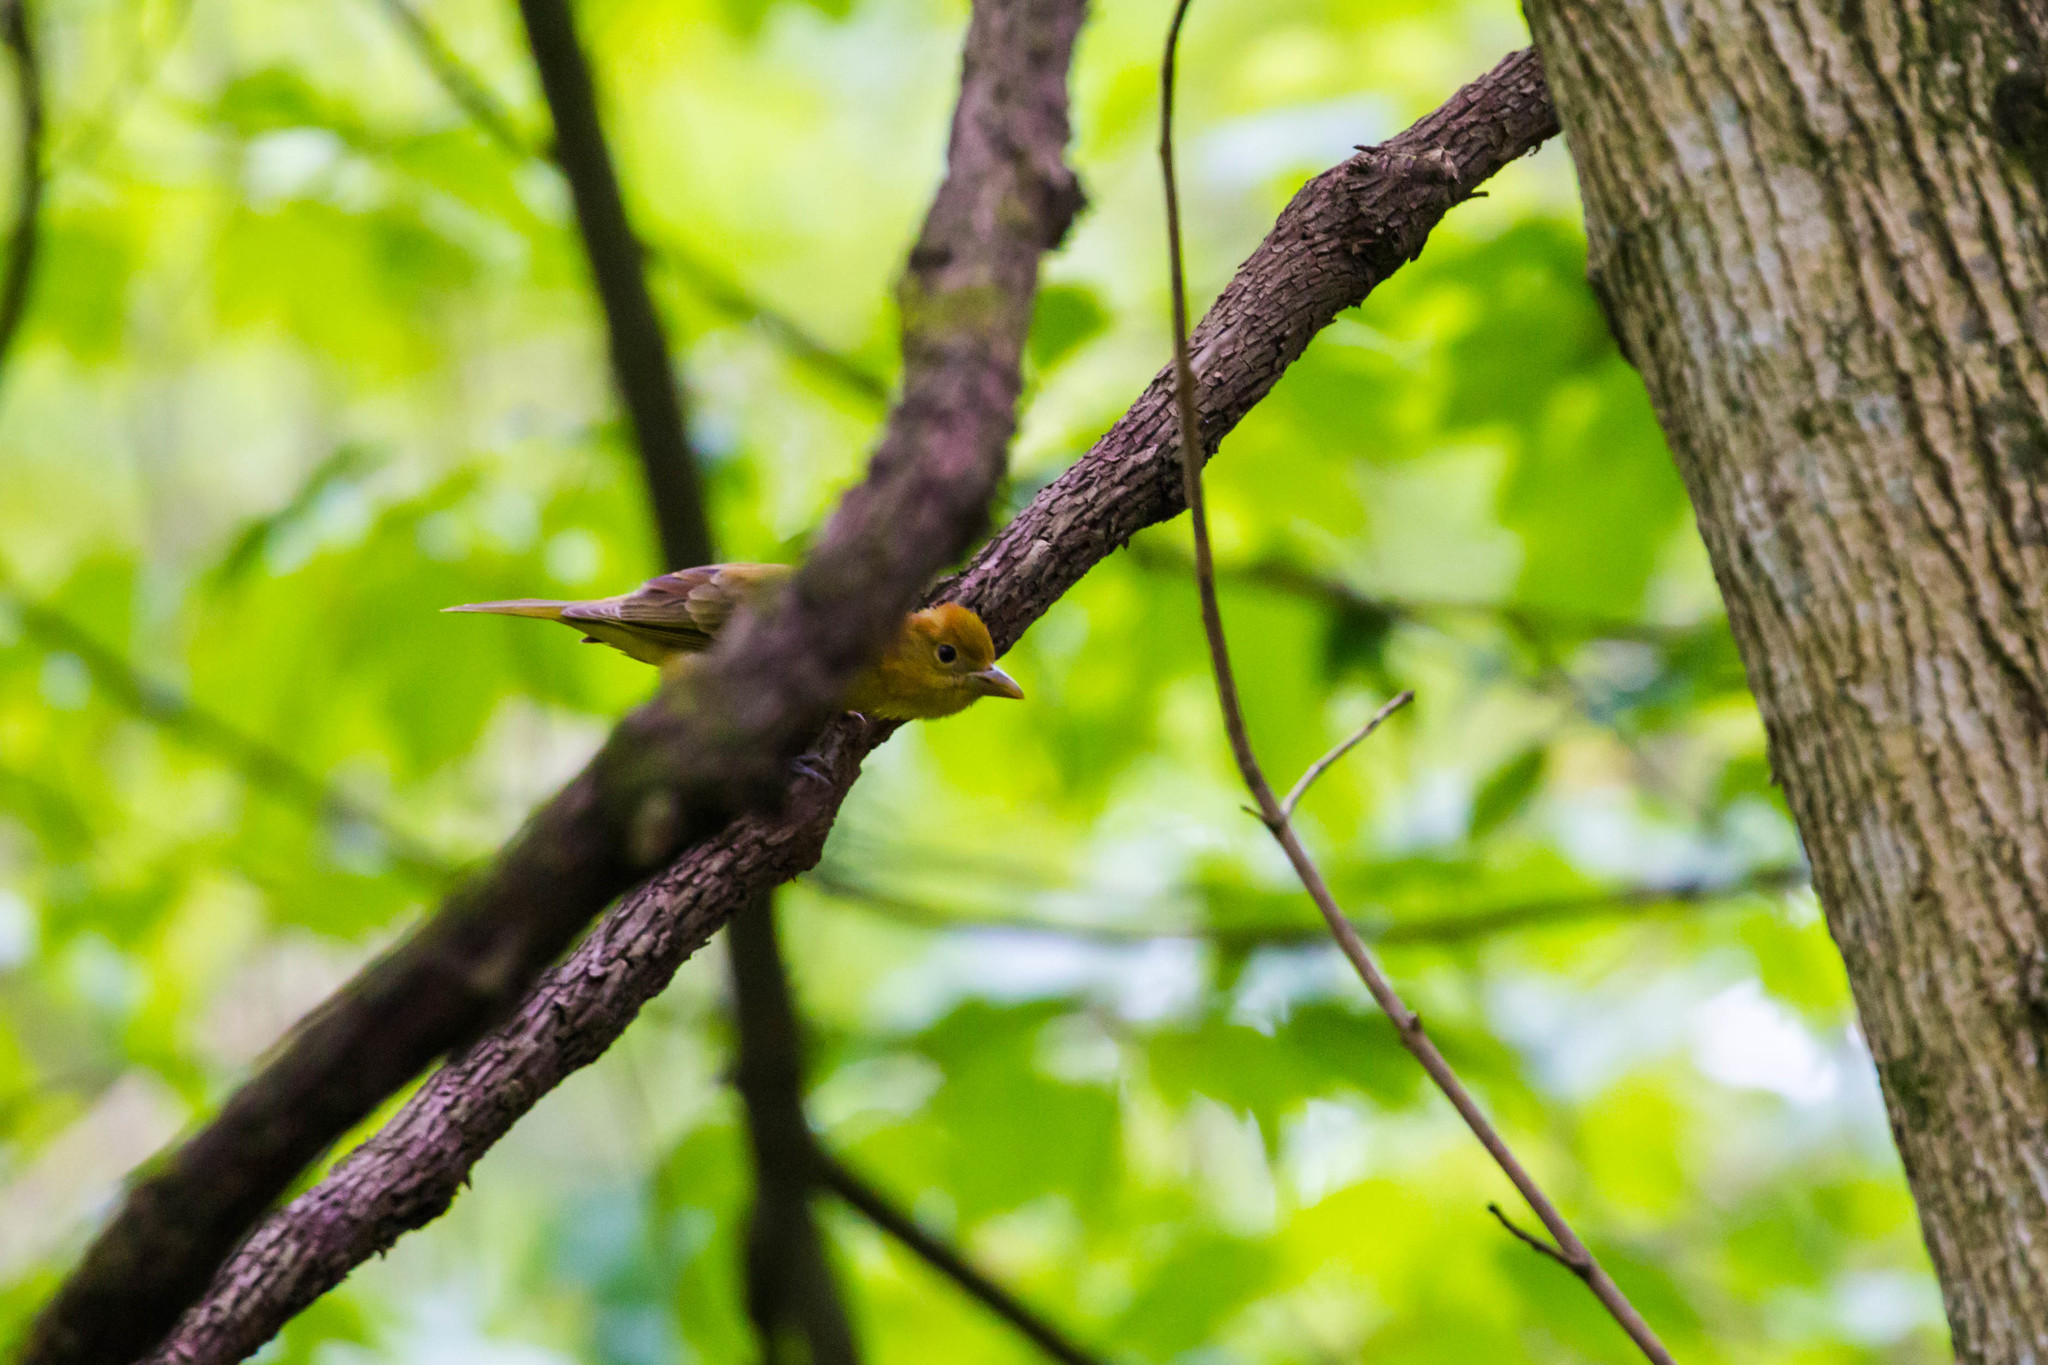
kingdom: Animalia
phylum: Chordata
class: Aves
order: Passeriformes
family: Cardinalidae
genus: Piranga
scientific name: Piranga rubra
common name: Summer tanager
